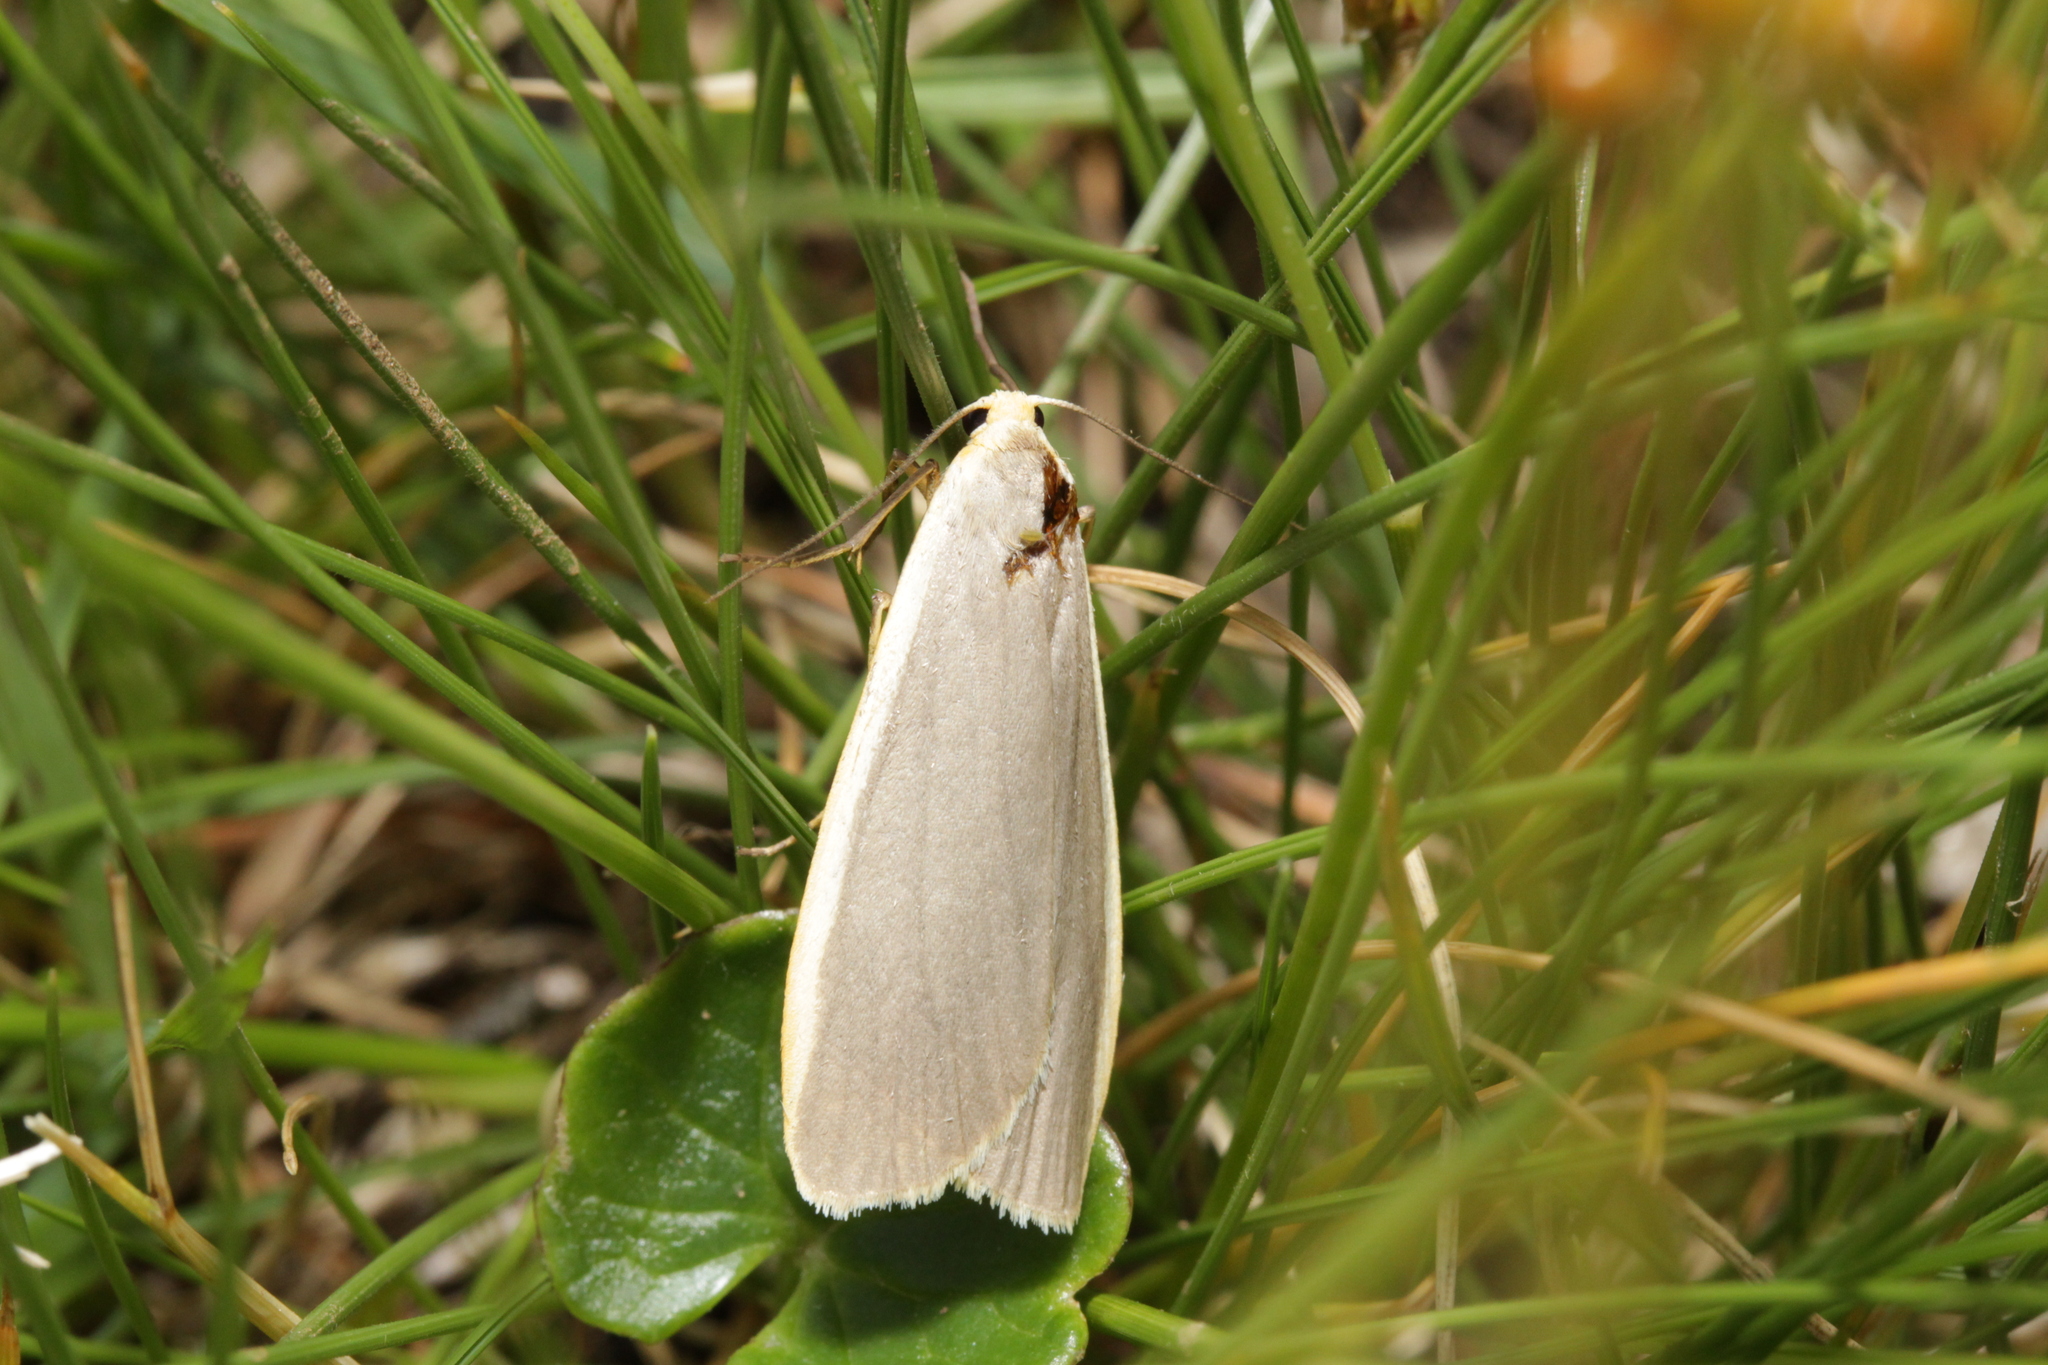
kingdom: Animalia
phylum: Arthropoda
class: Insecta
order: Lepidoptera
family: Erebidae
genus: Nyea
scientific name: Nyea lurideola
